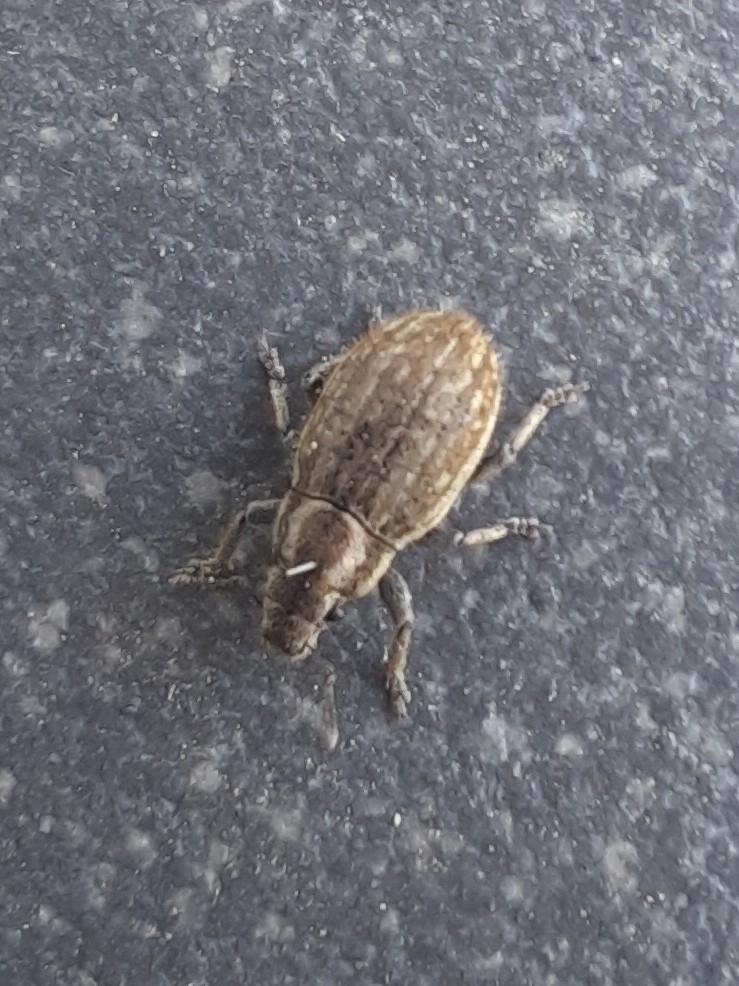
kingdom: Animalia
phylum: Arthropoda
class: Insecta
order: Coleoptera
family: Curculionidae
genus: Strophosoma
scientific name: Strophosoma faber
